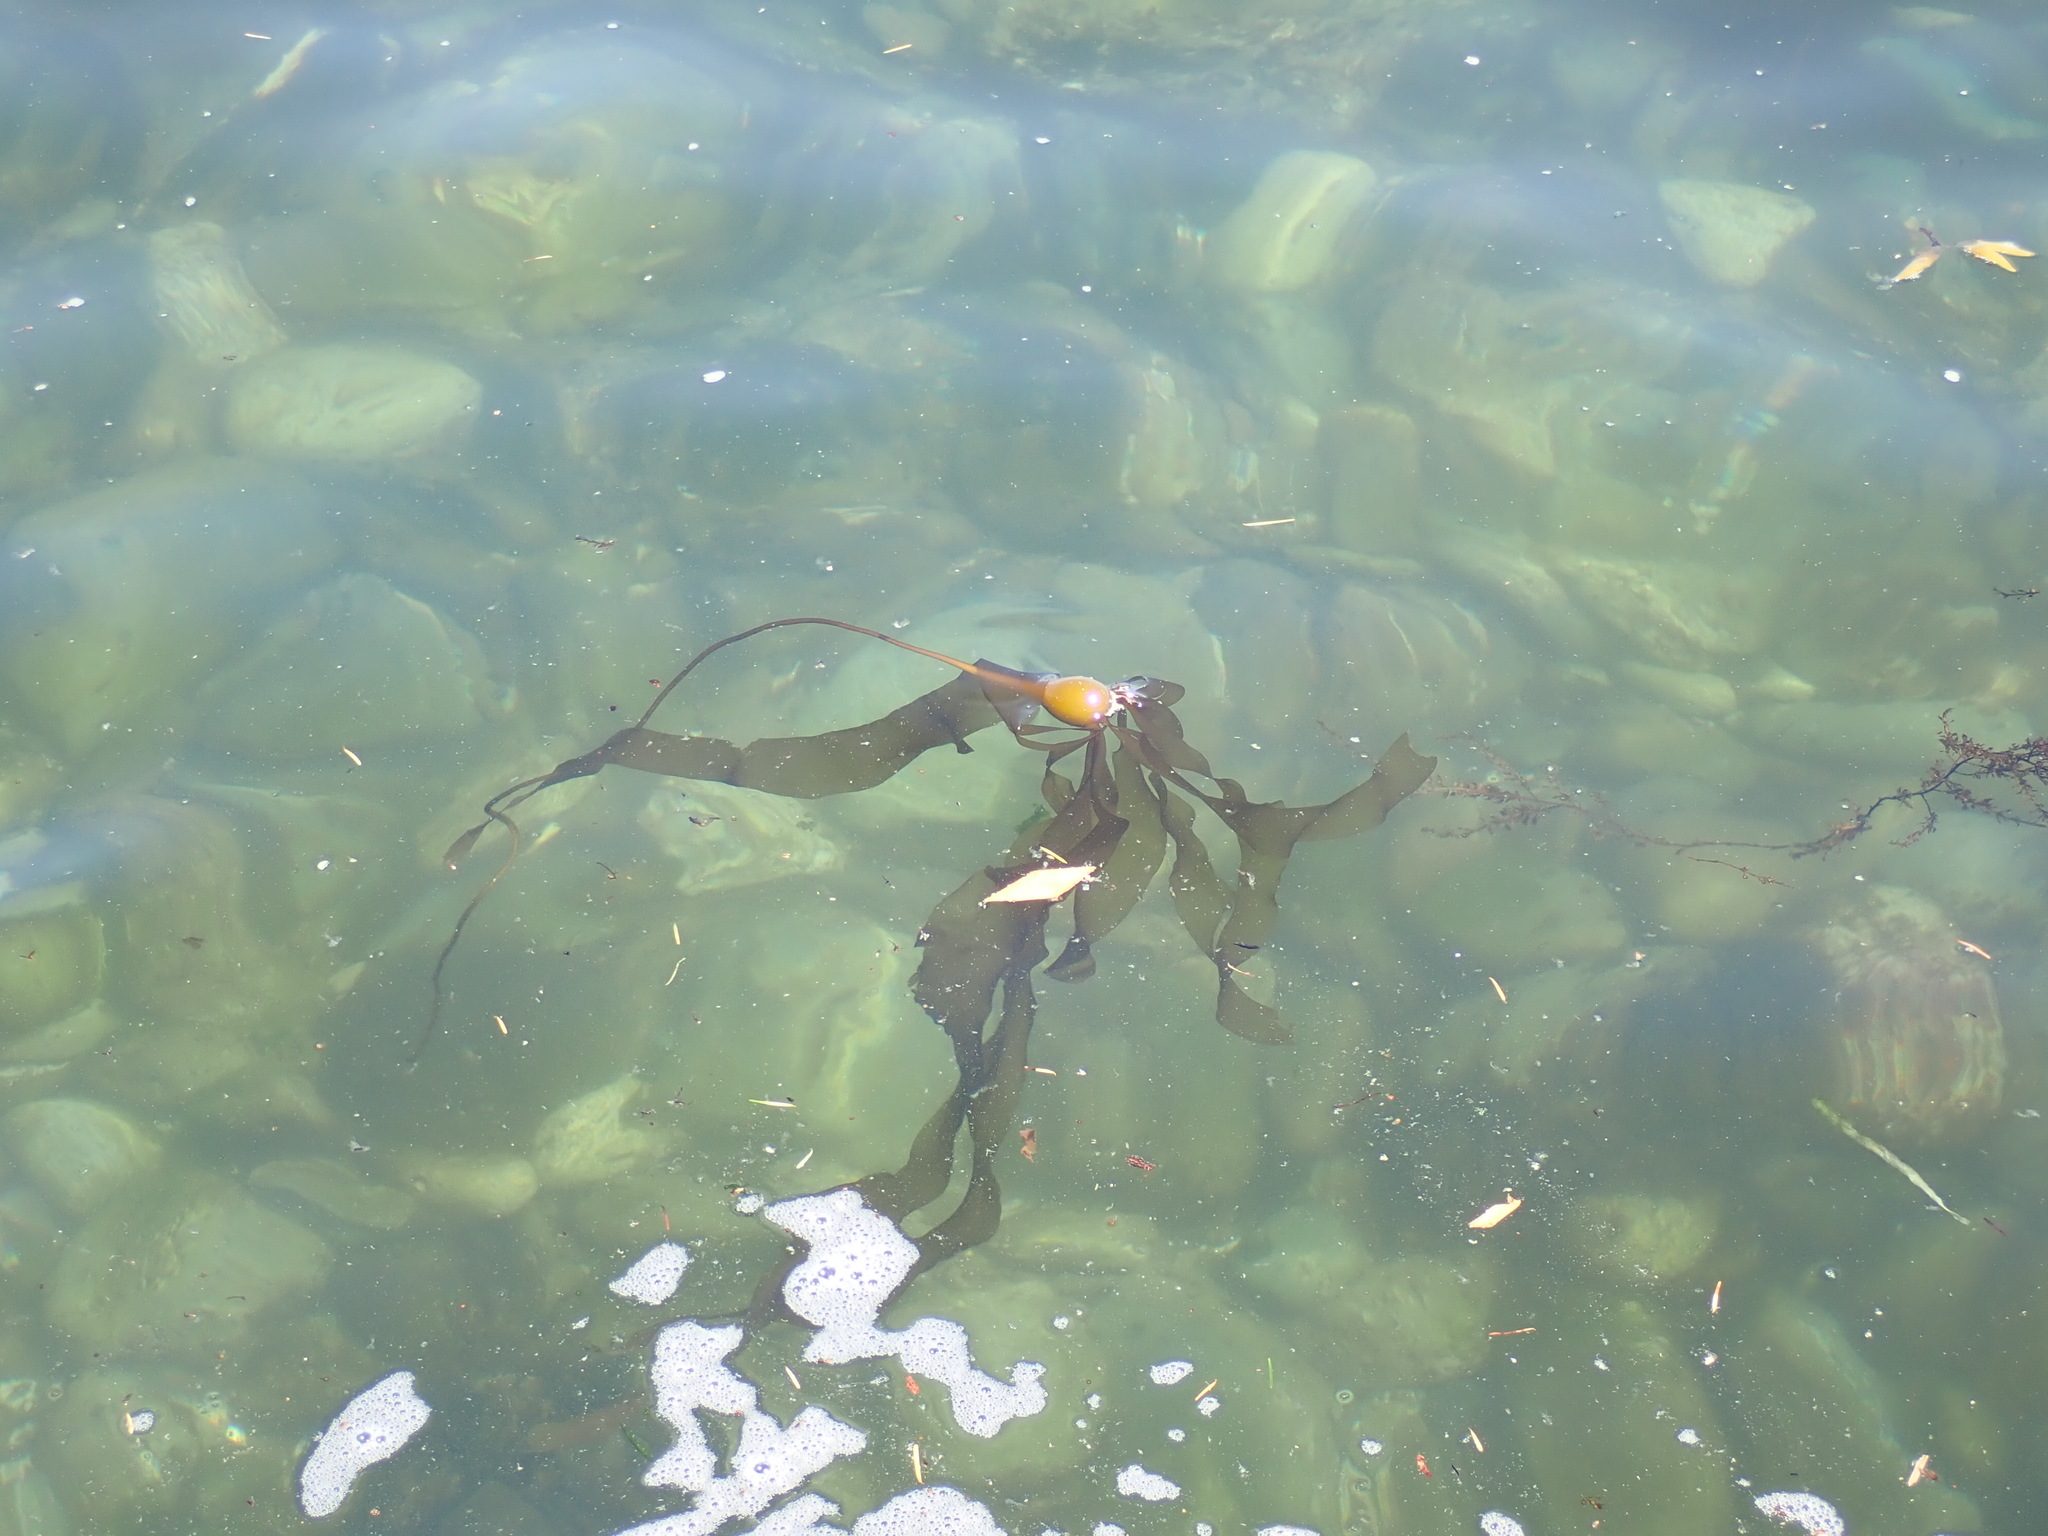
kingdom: Chromista
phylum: Ochrophyta
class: Phaeophyceae
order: Laminariales
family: Laminariaceae
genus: Nereocystis
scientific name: Nereocystis luetkeana
